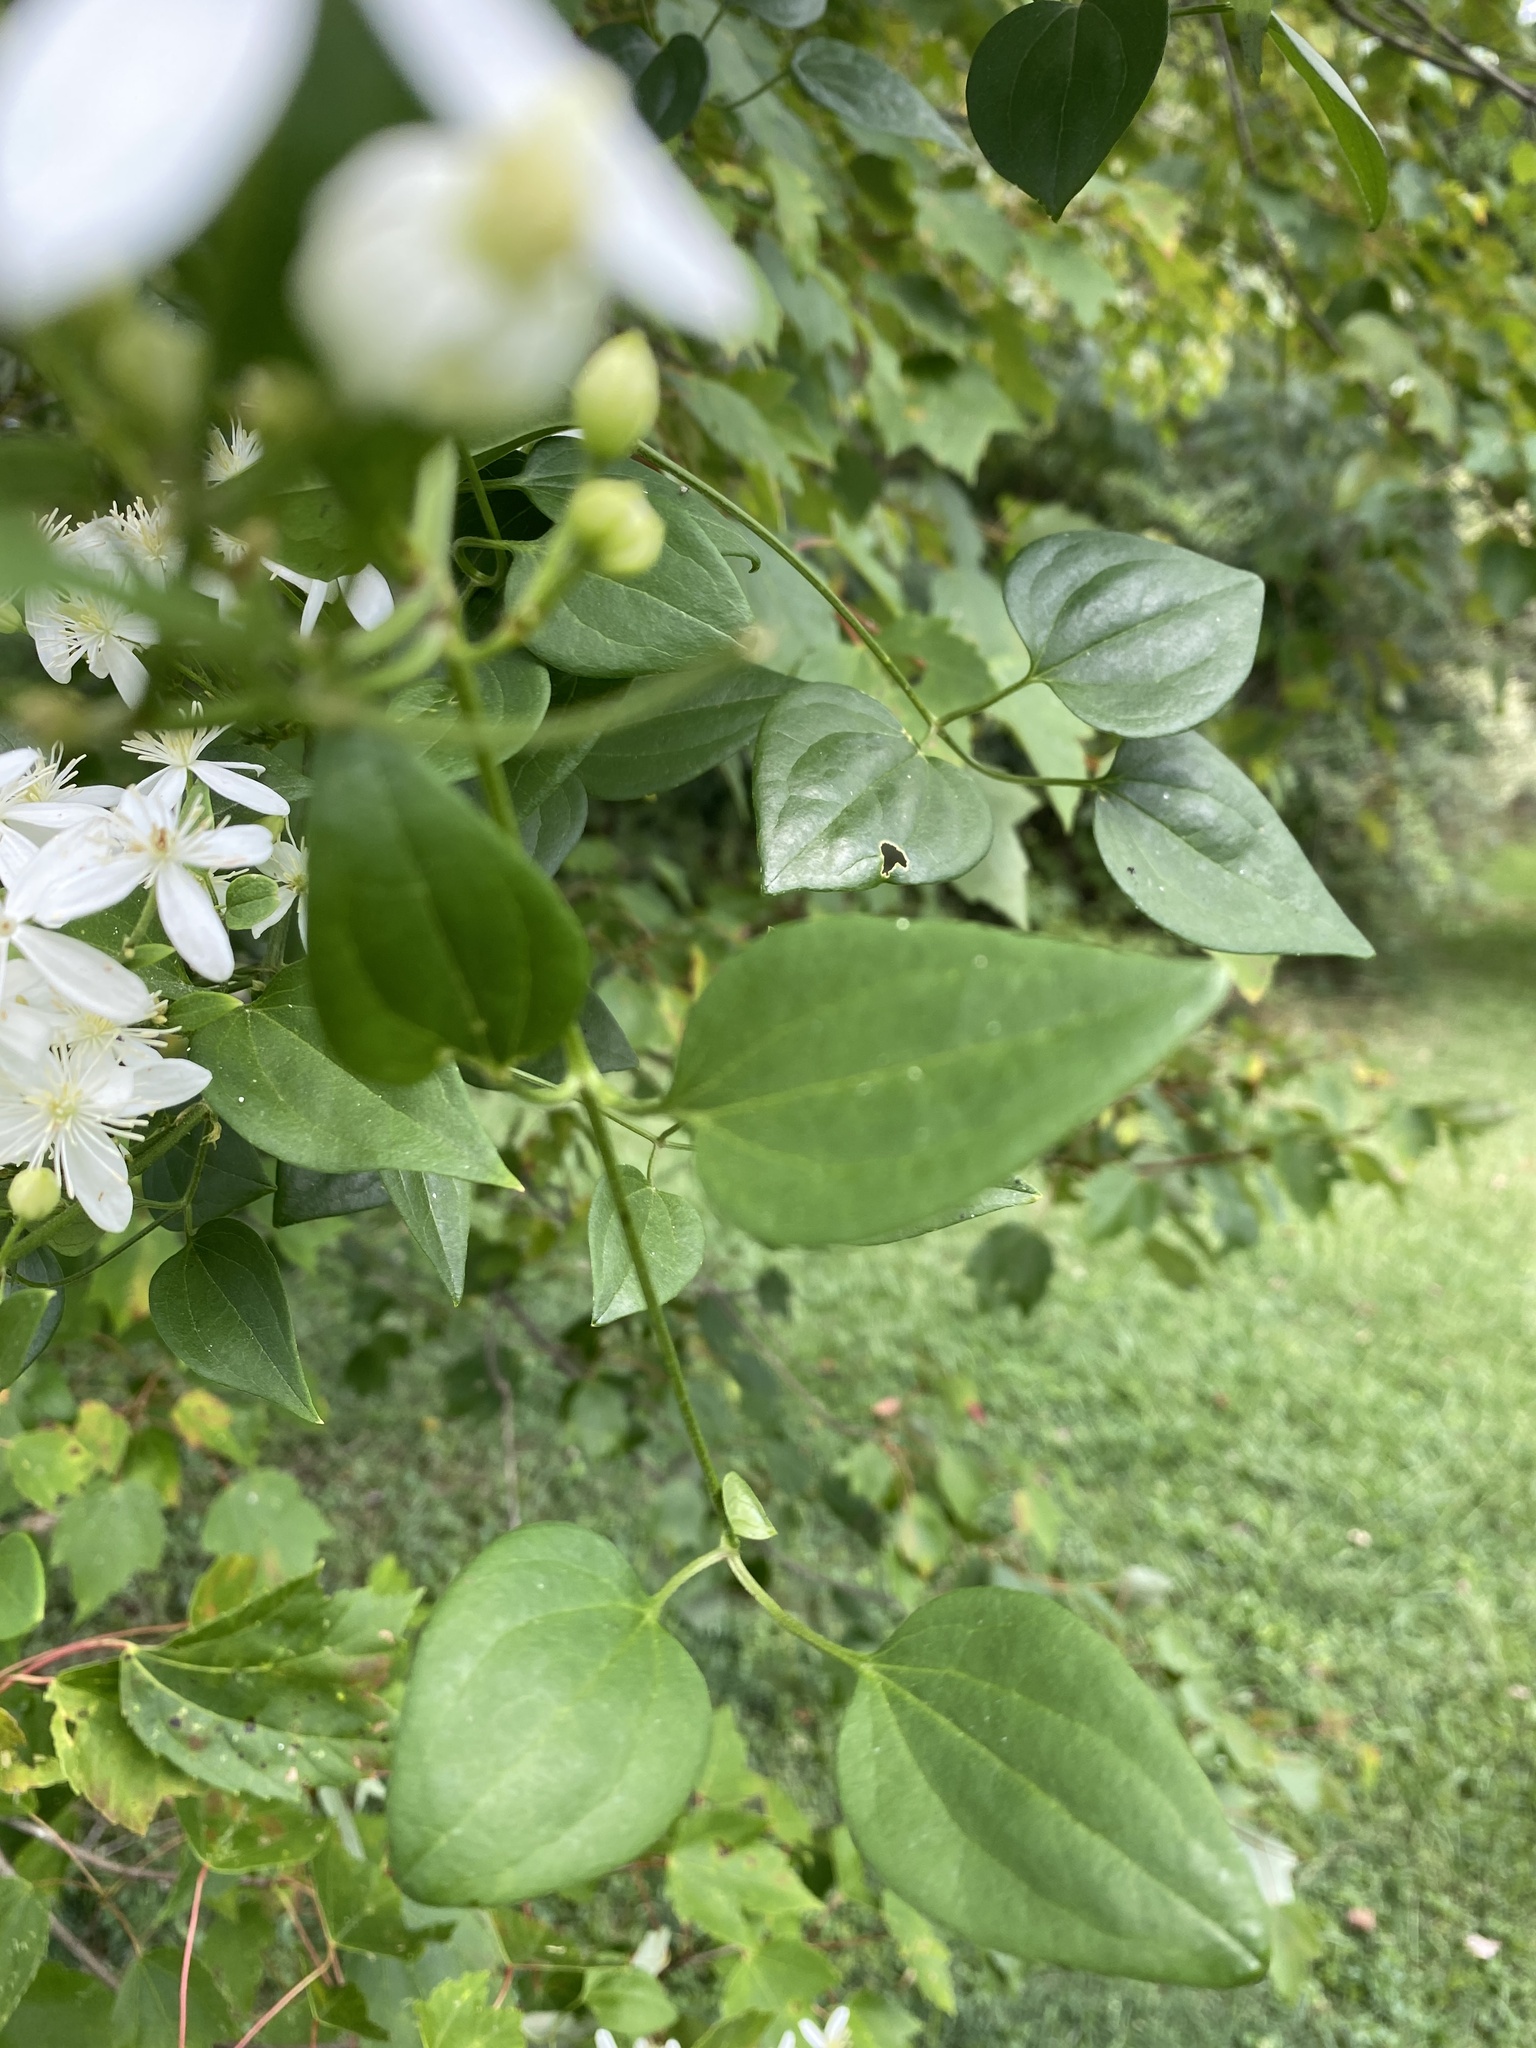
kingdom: Plantae
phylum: Tracheophyta
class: Magnoliopsida
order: Ranunculales
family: Ranunculaceae
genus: Clematis
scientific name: Clematis terniflora
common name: Sweet autumn clematis
